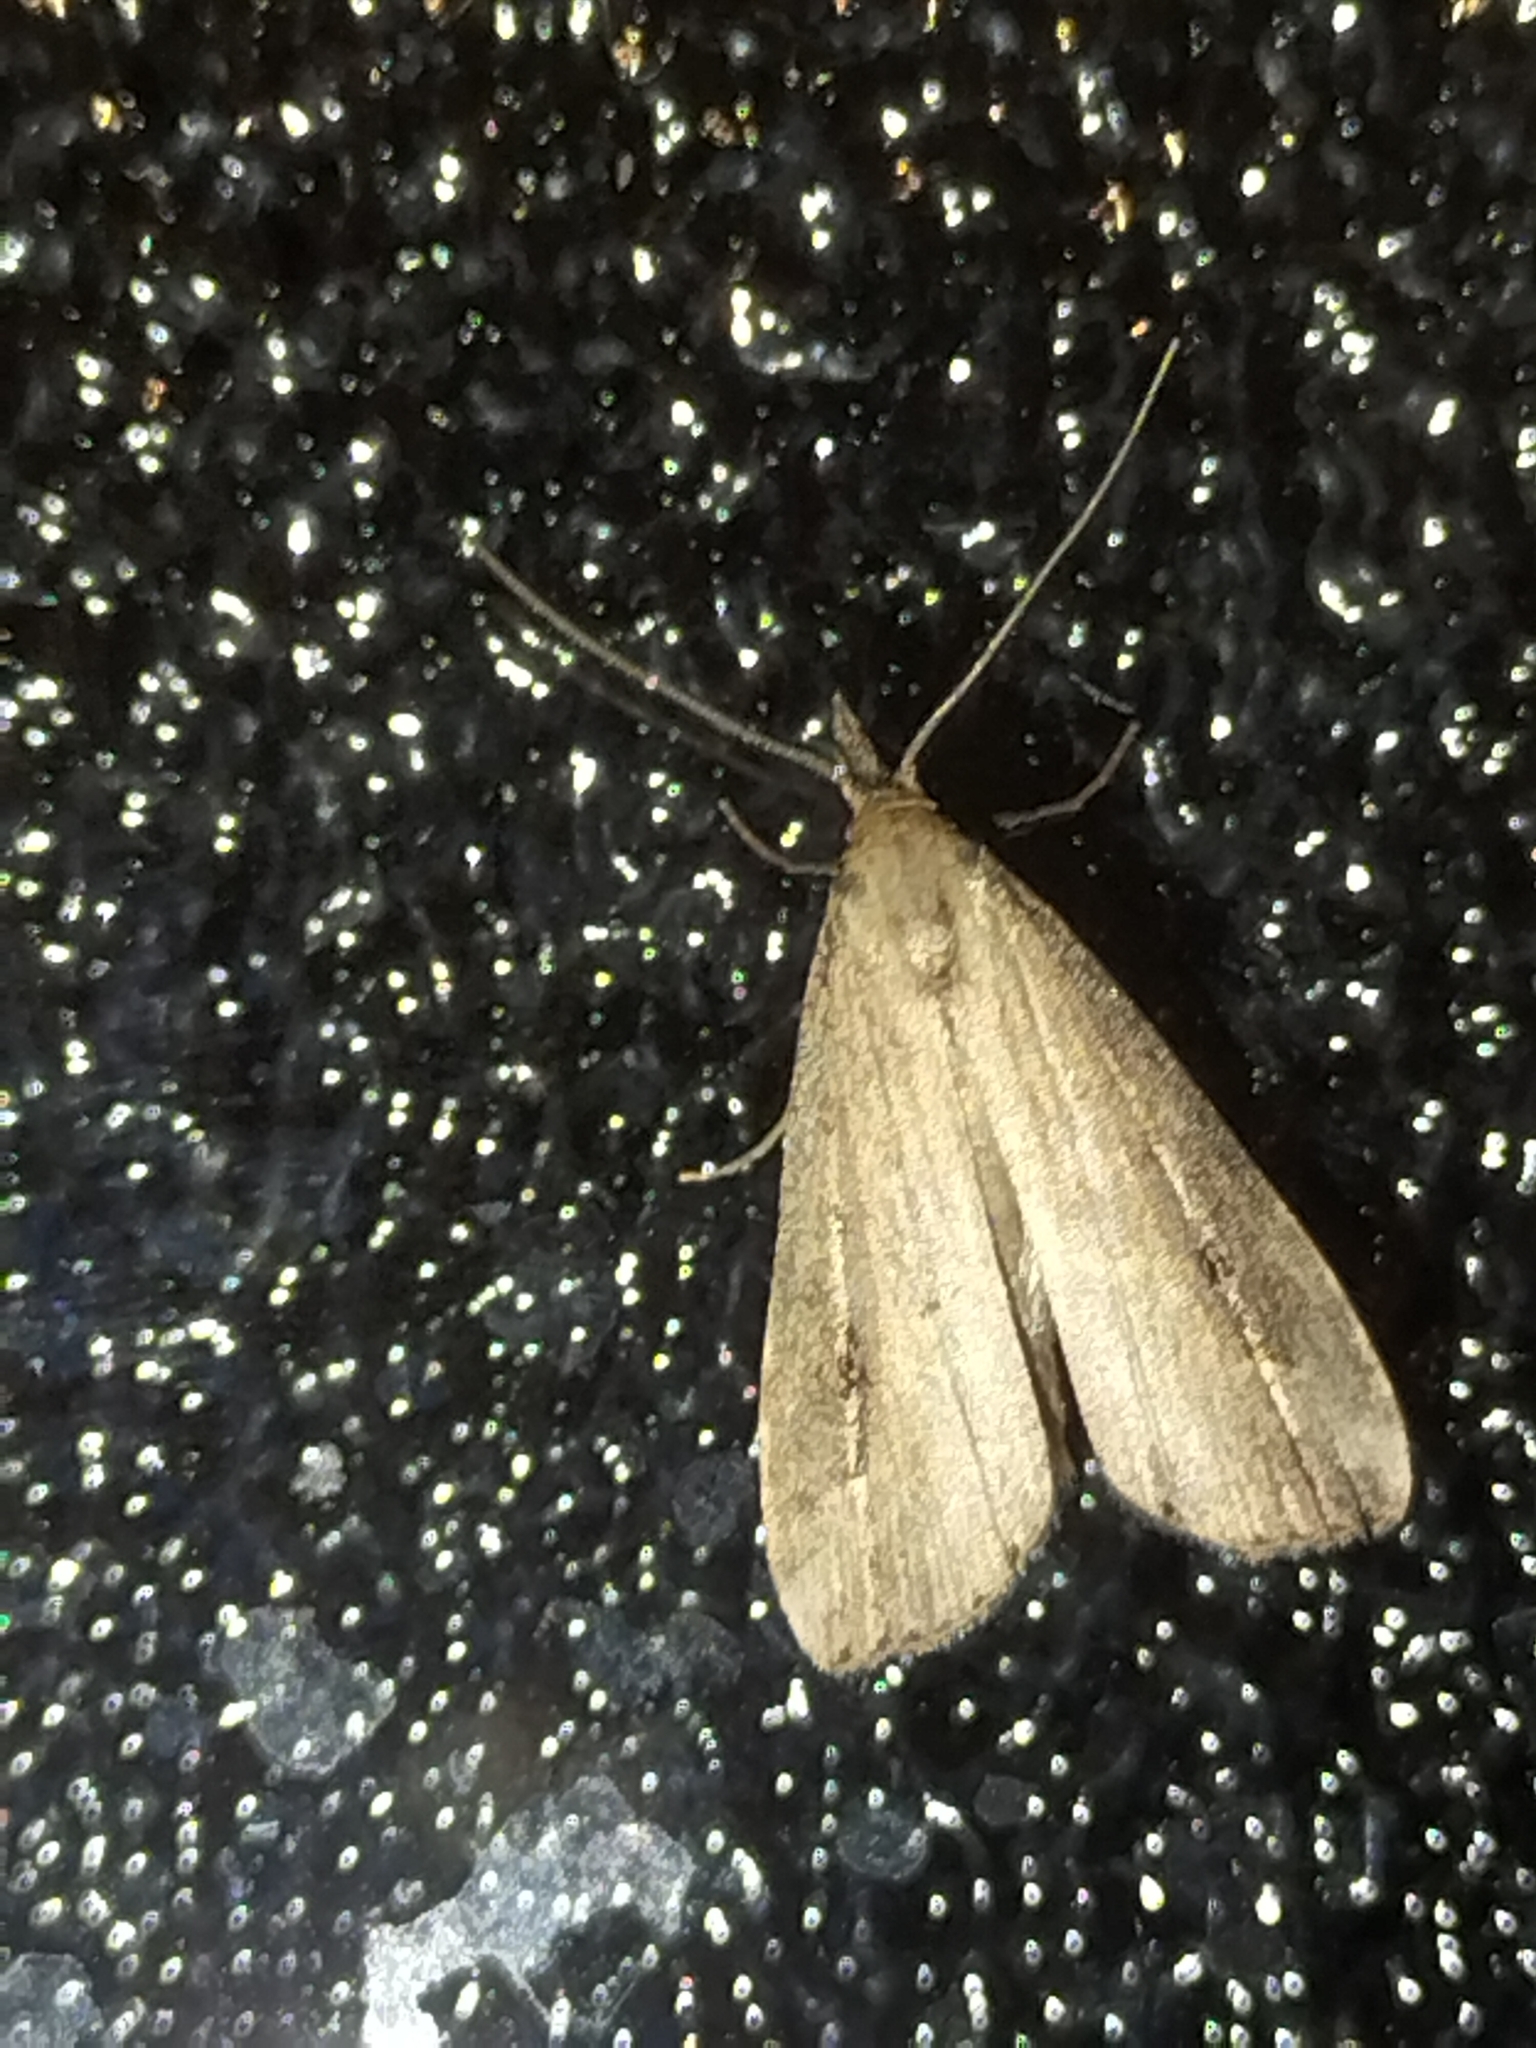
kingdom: Animalia
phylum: Arthropoda
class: Insecta
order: Lepidoptera
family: Erebidae
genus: Schrankia
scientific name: Schrankia costaestrigalis
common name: Pinion-streaked snout
